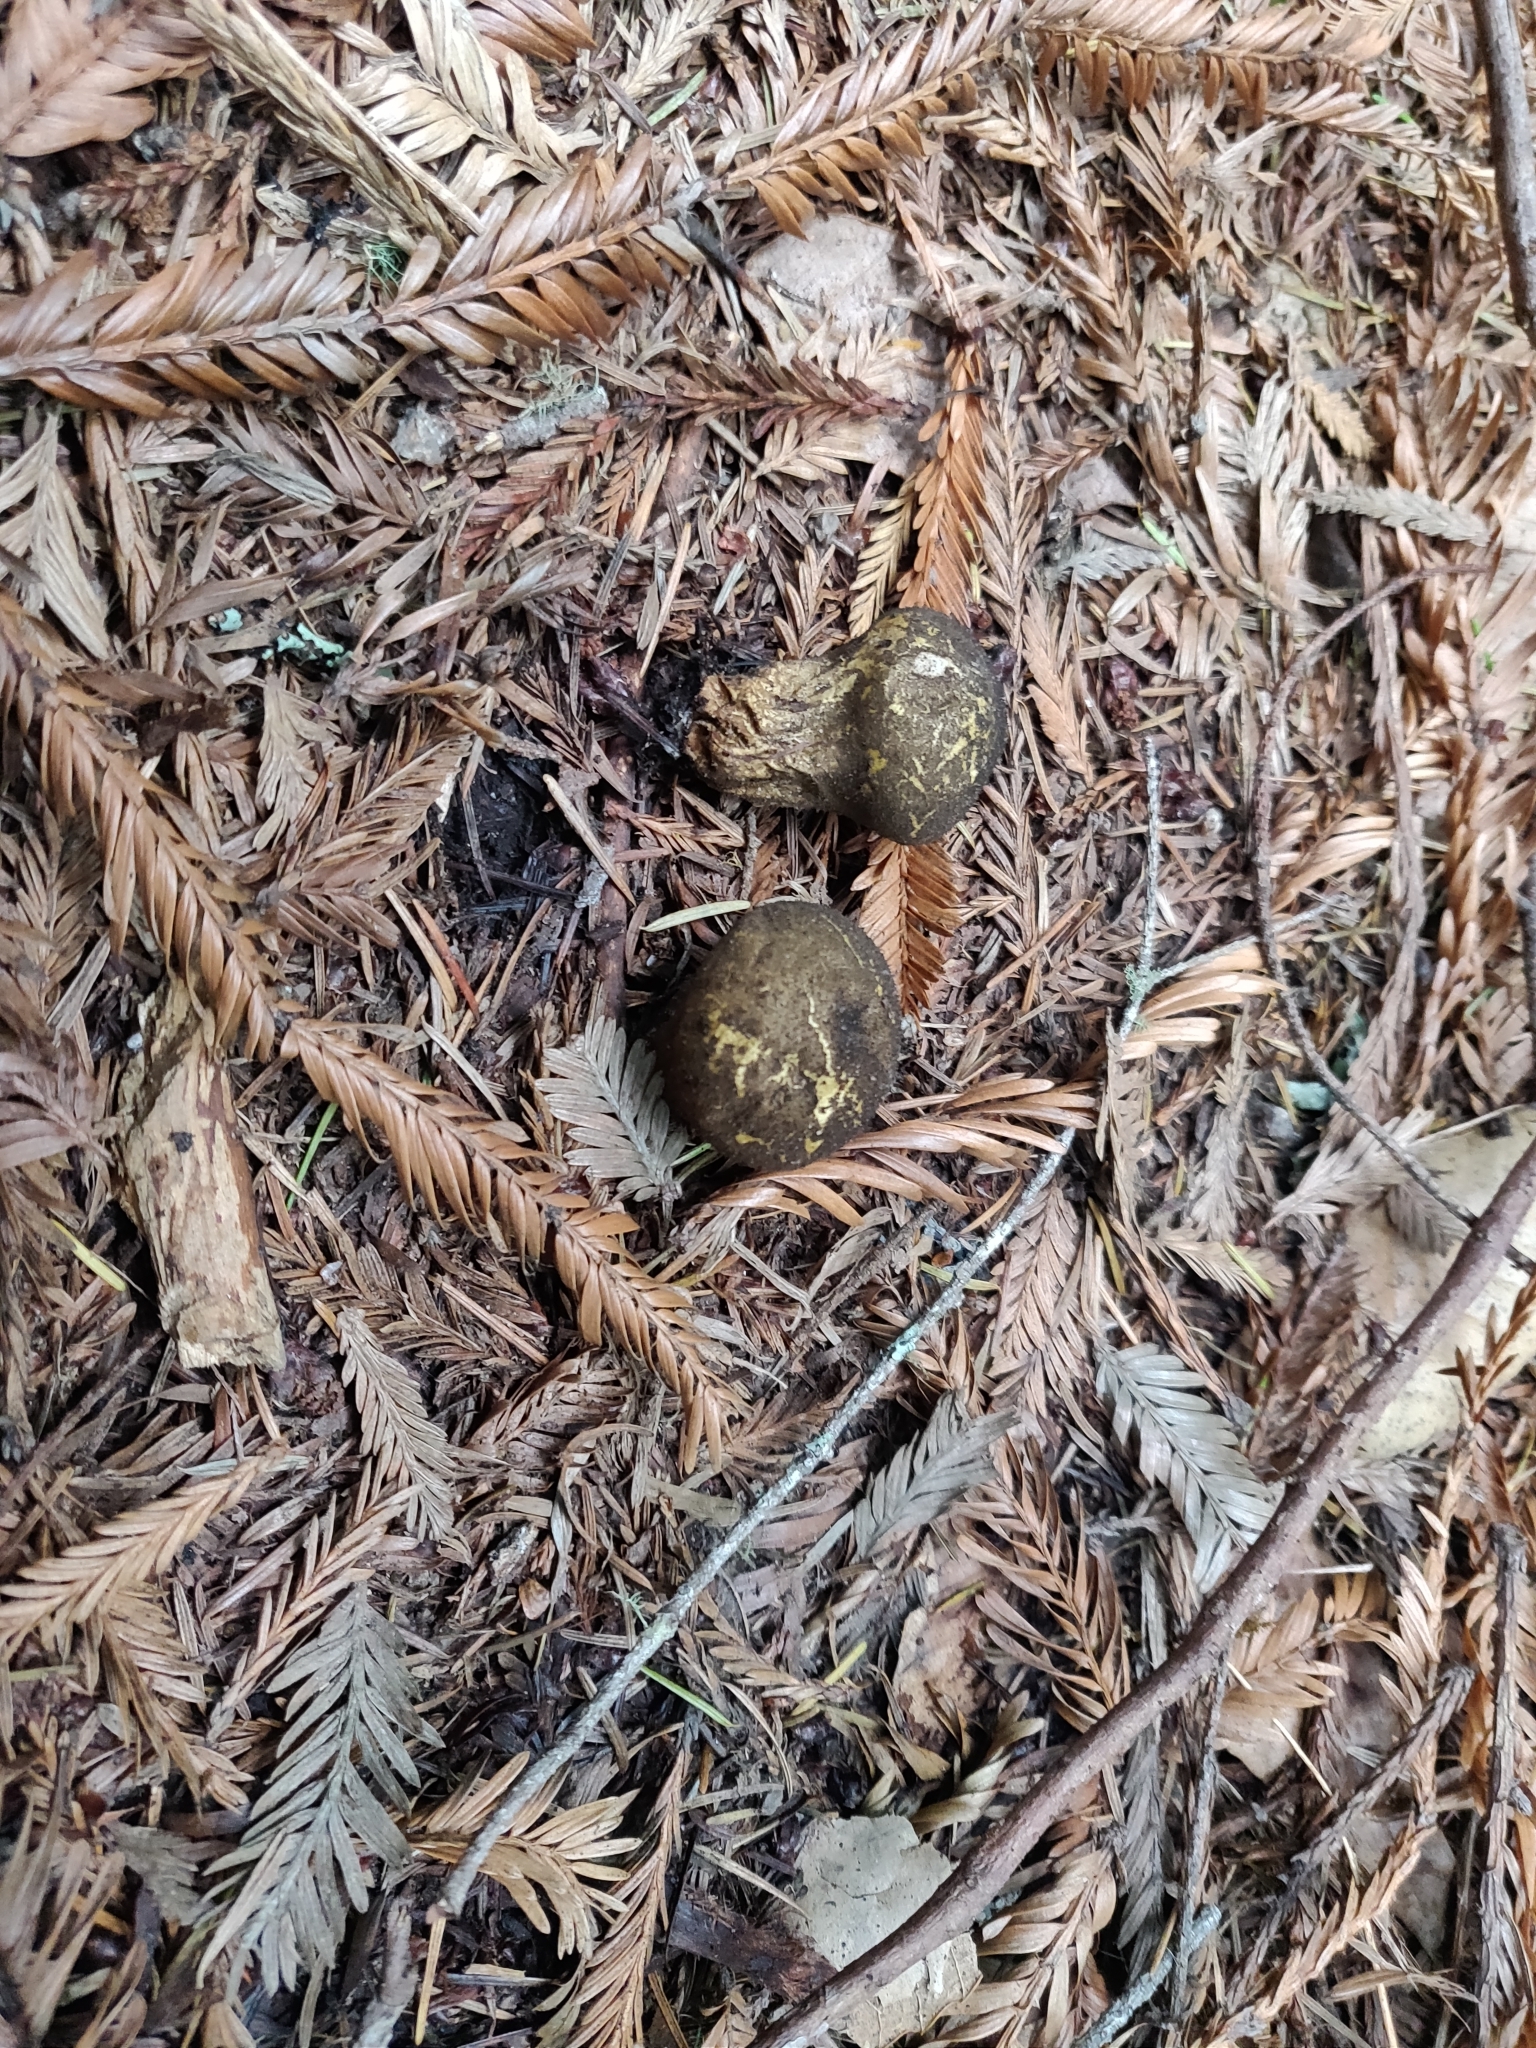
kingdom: Fungi
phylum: Basidiomycota
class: Agaricomycetes
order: Agaricales
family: Lycoperdaceae
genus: Lycoperdon
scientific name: Lycoperdon umbrinum
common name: Umber-brown puffball
